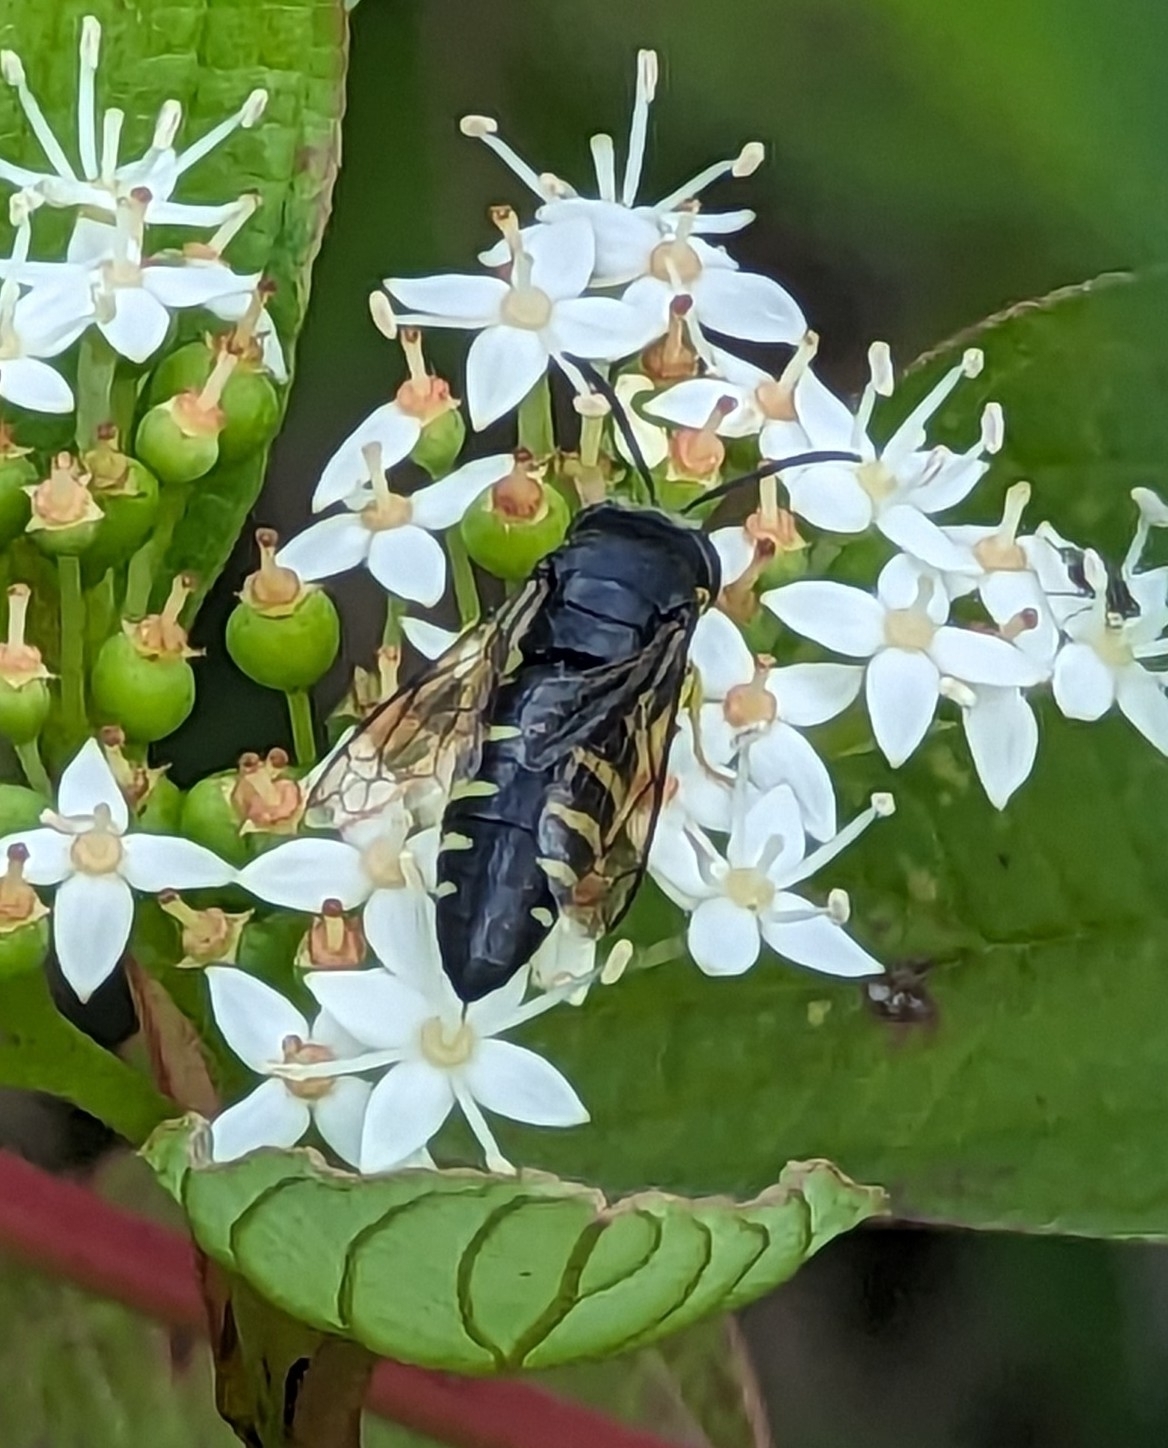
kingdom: Animalia
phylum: Arthropoda
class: Insecta
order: Hymenoptera
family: Crabronidae
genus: Bicyrtes
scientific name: Bicyrtes quadrifasciatus
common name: Four-banded stink bug hunter wasp
